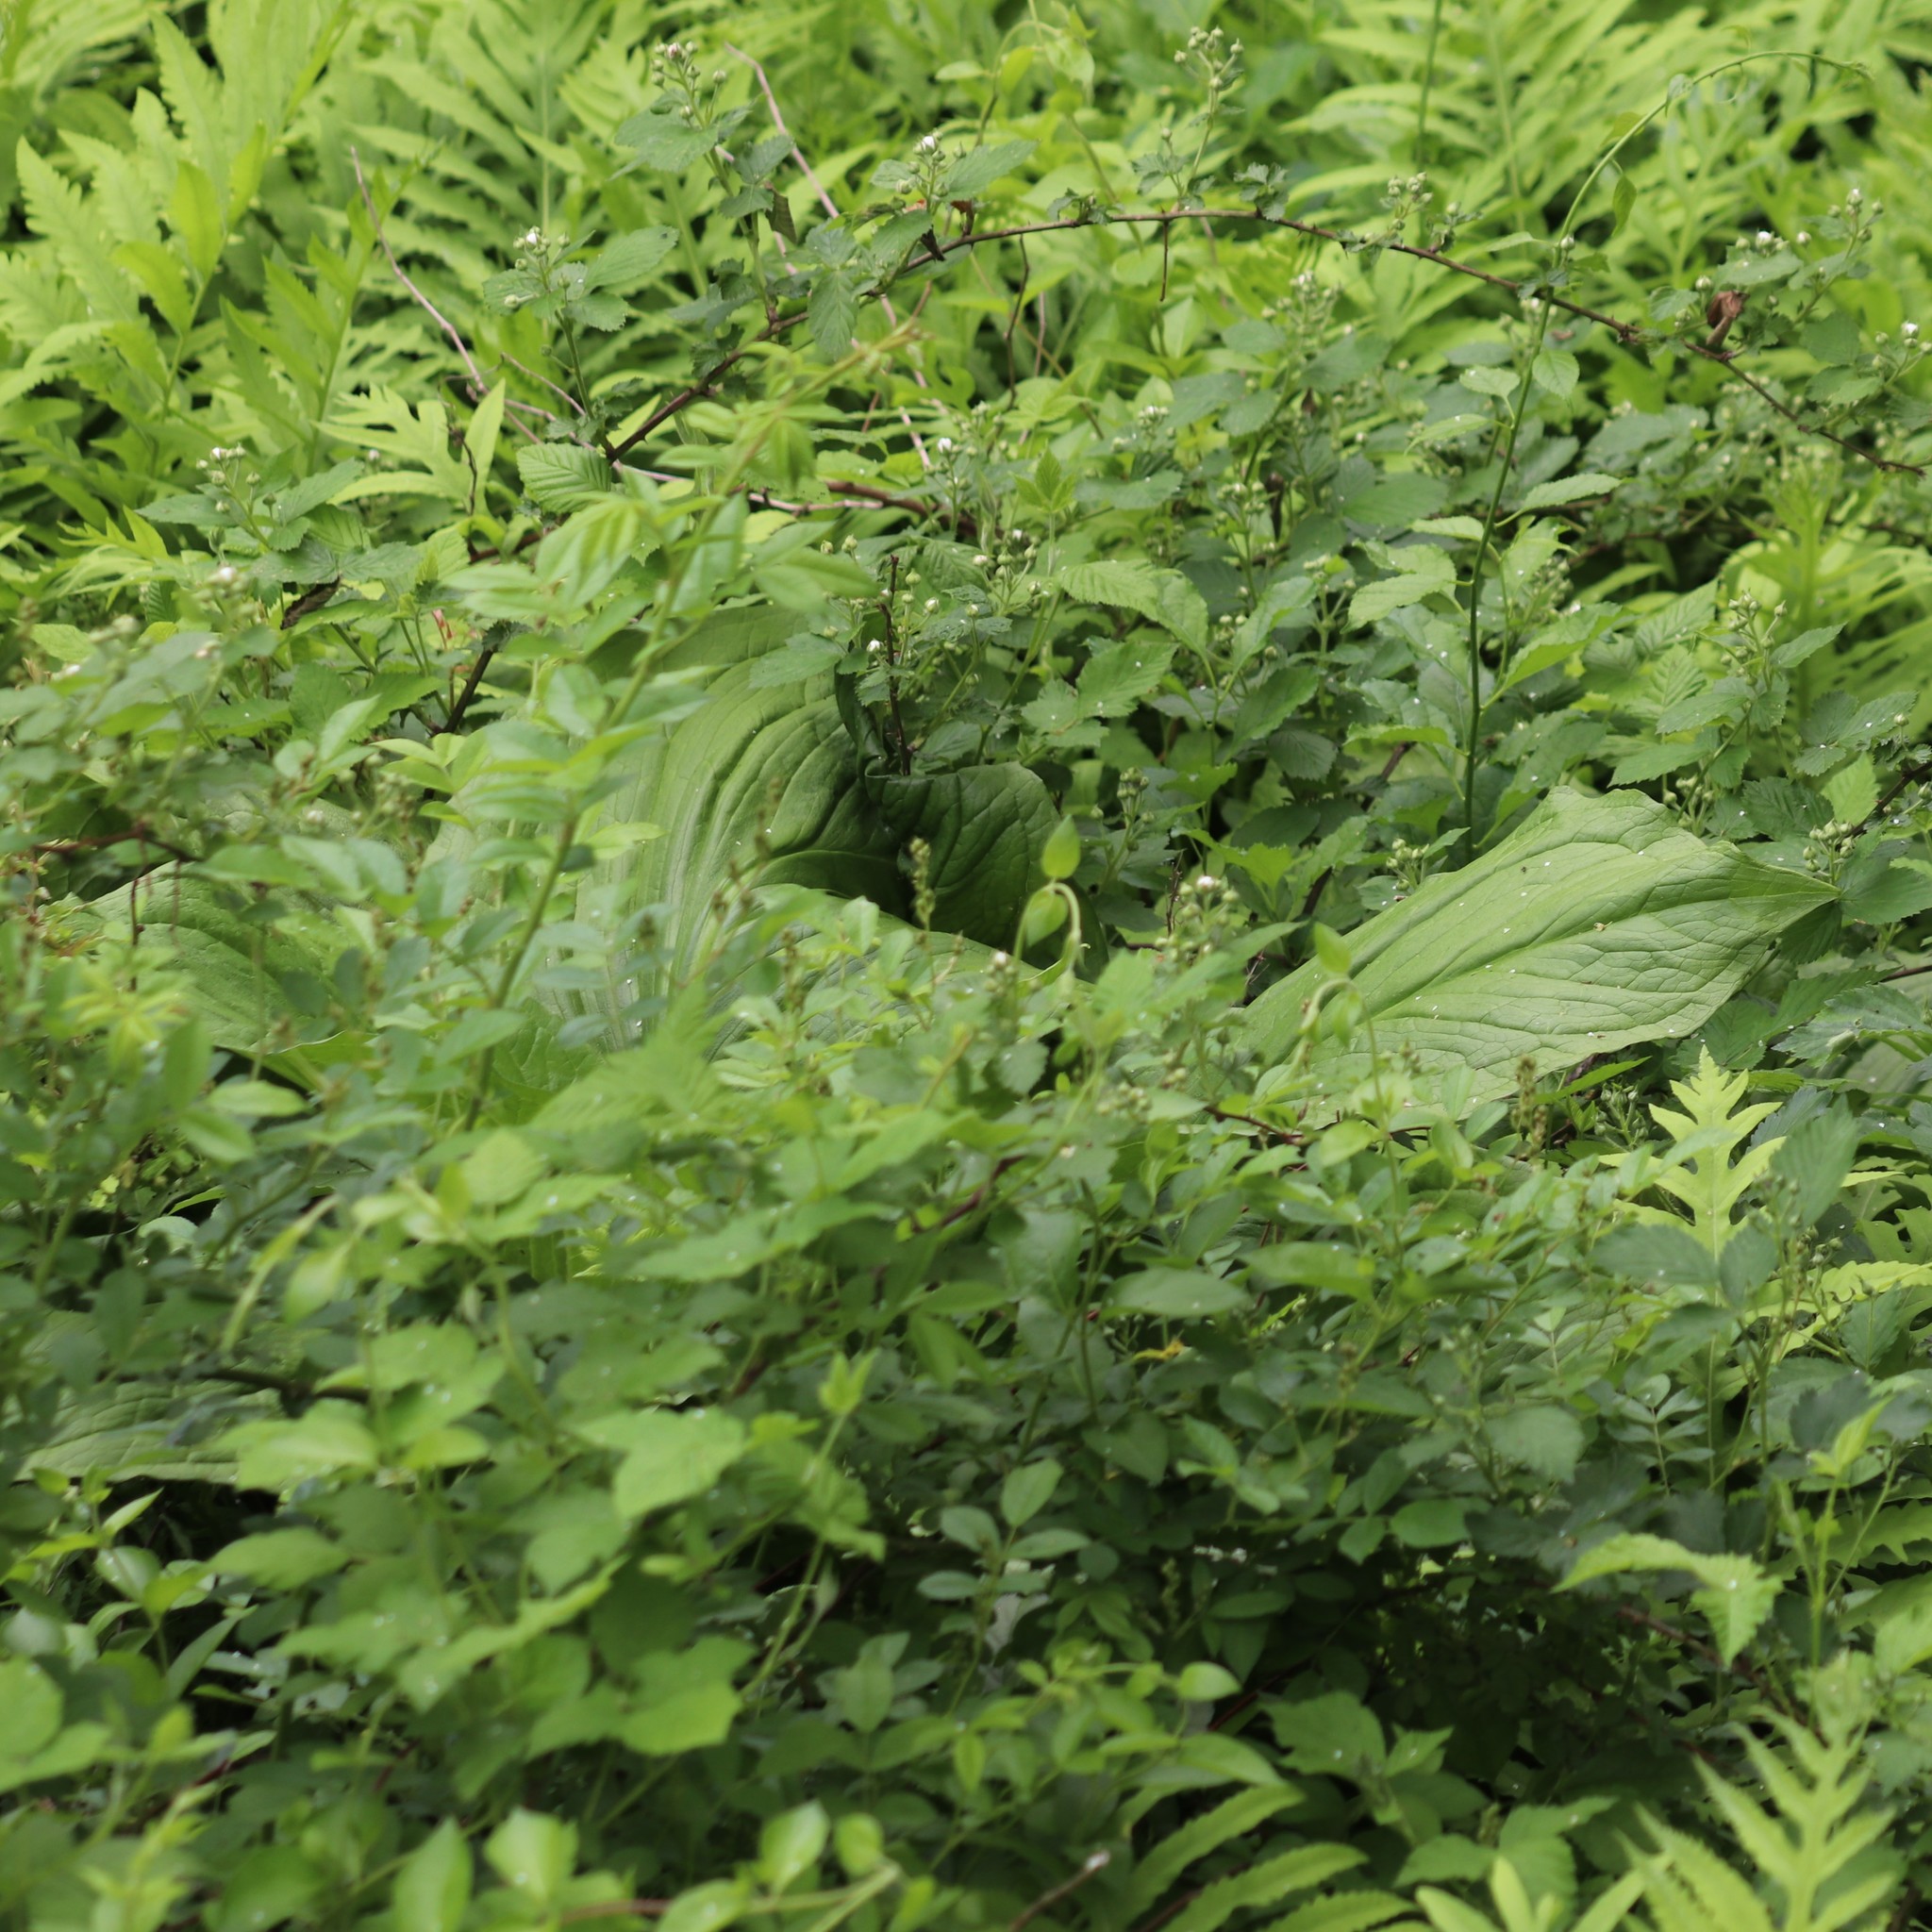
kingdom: Plantae
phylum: Tracheophyta
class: Liliopsida
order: Alismatales
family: Araceae
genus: Symplocarpus
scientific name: Symplocarpus foetidus
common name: Eastern skunk cabbage
